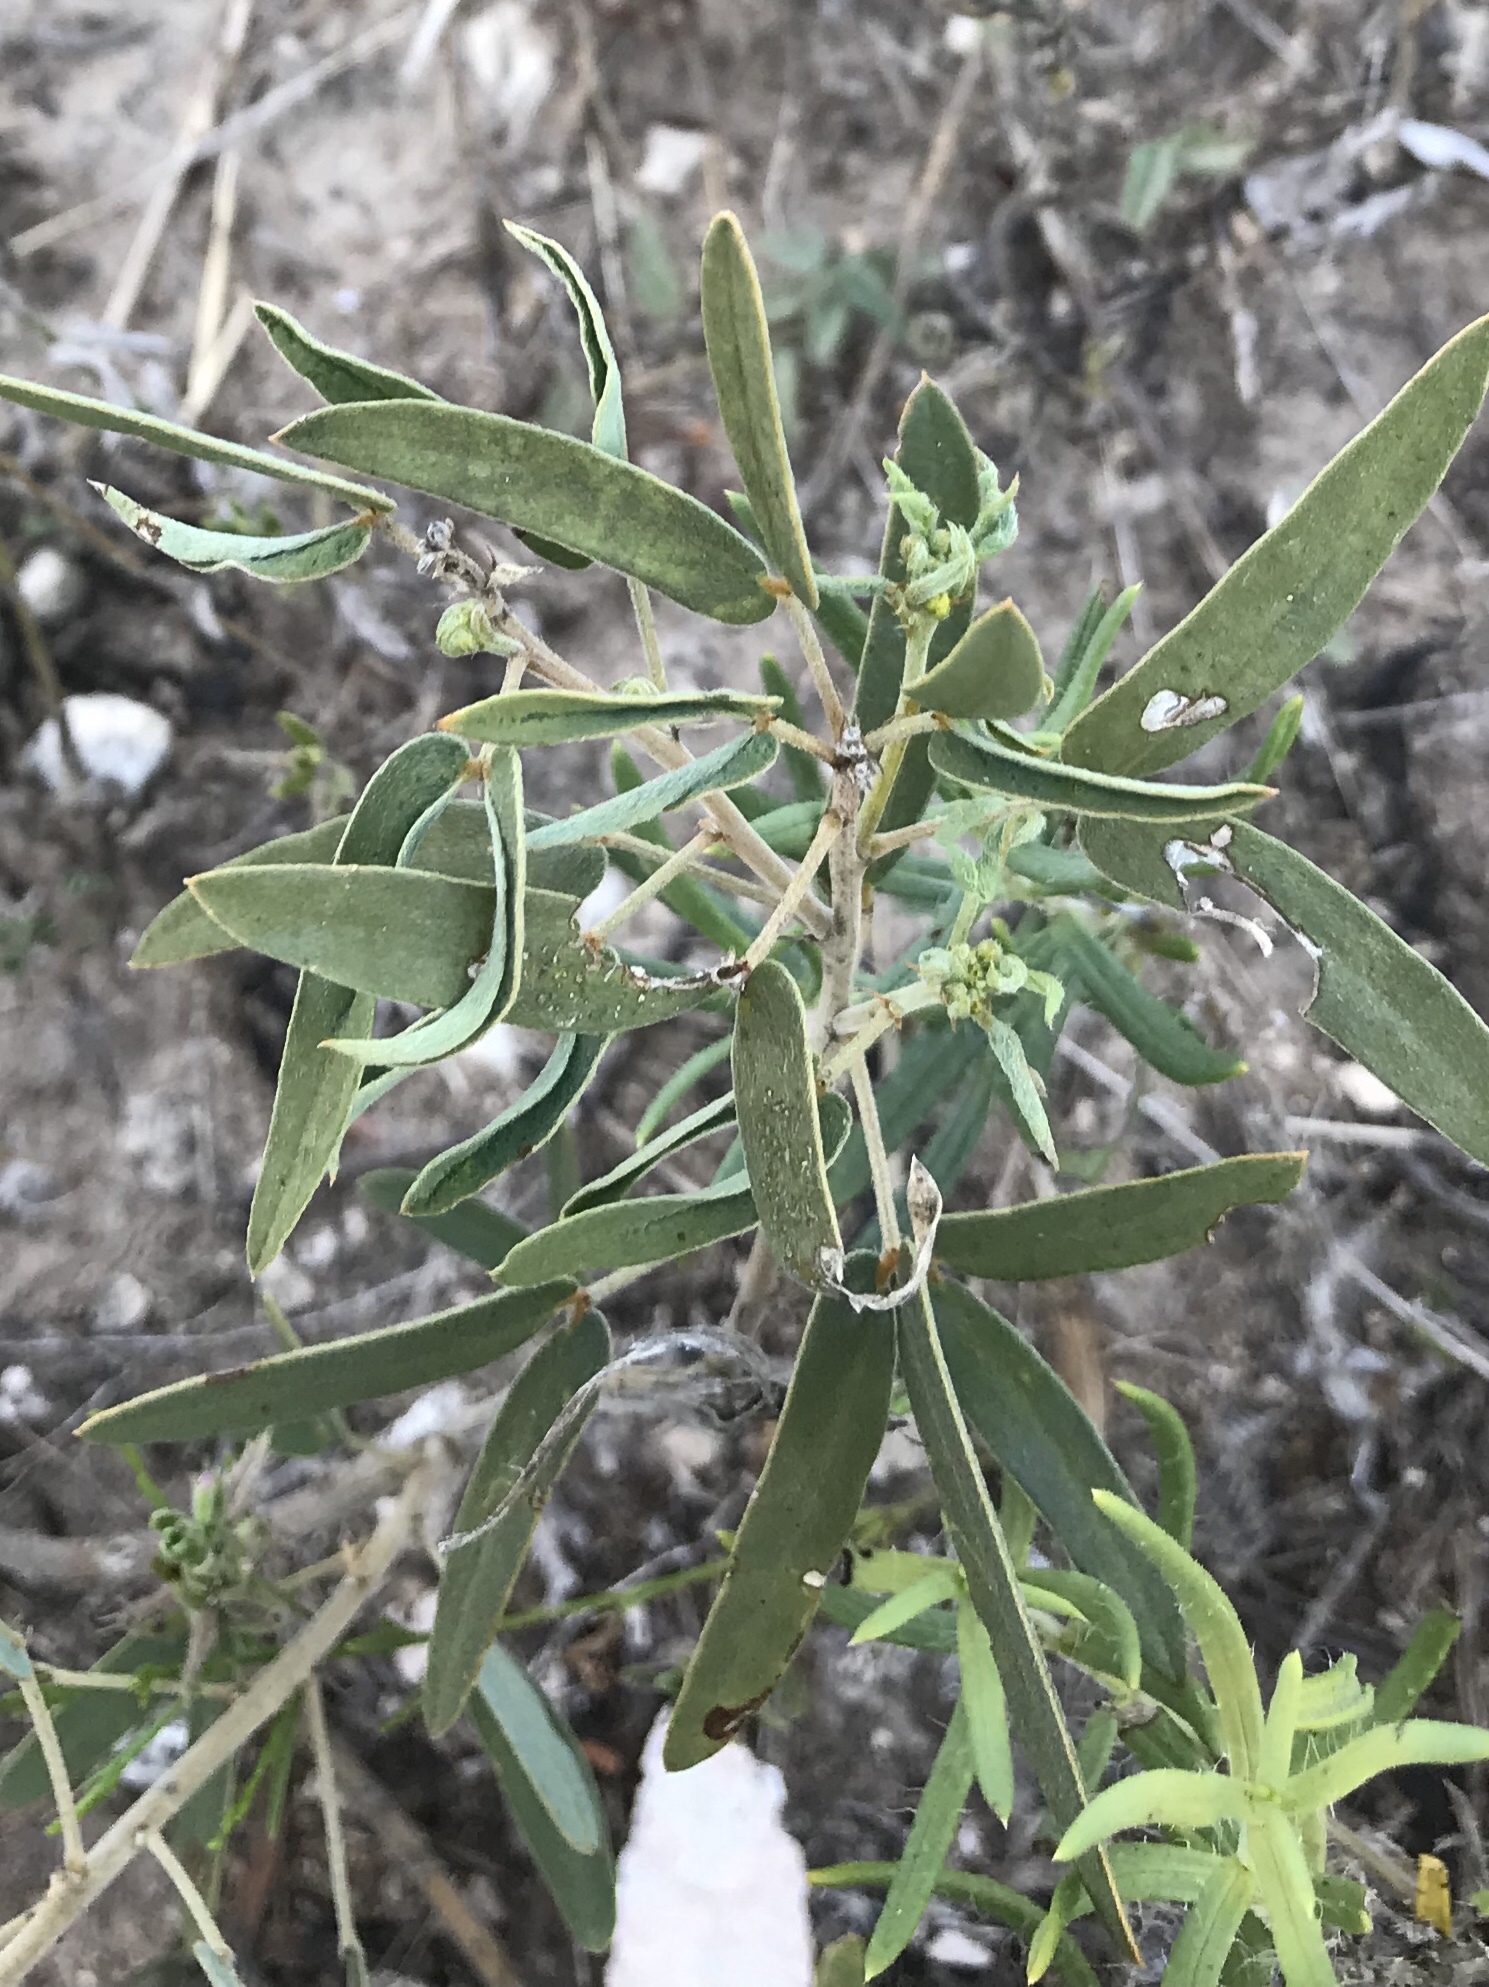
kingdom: Plantae
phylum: Tracheophyta
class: Magnoliopsida
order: Fabales
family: Fabaceae
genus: Senna
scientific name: Senna roemeriana
